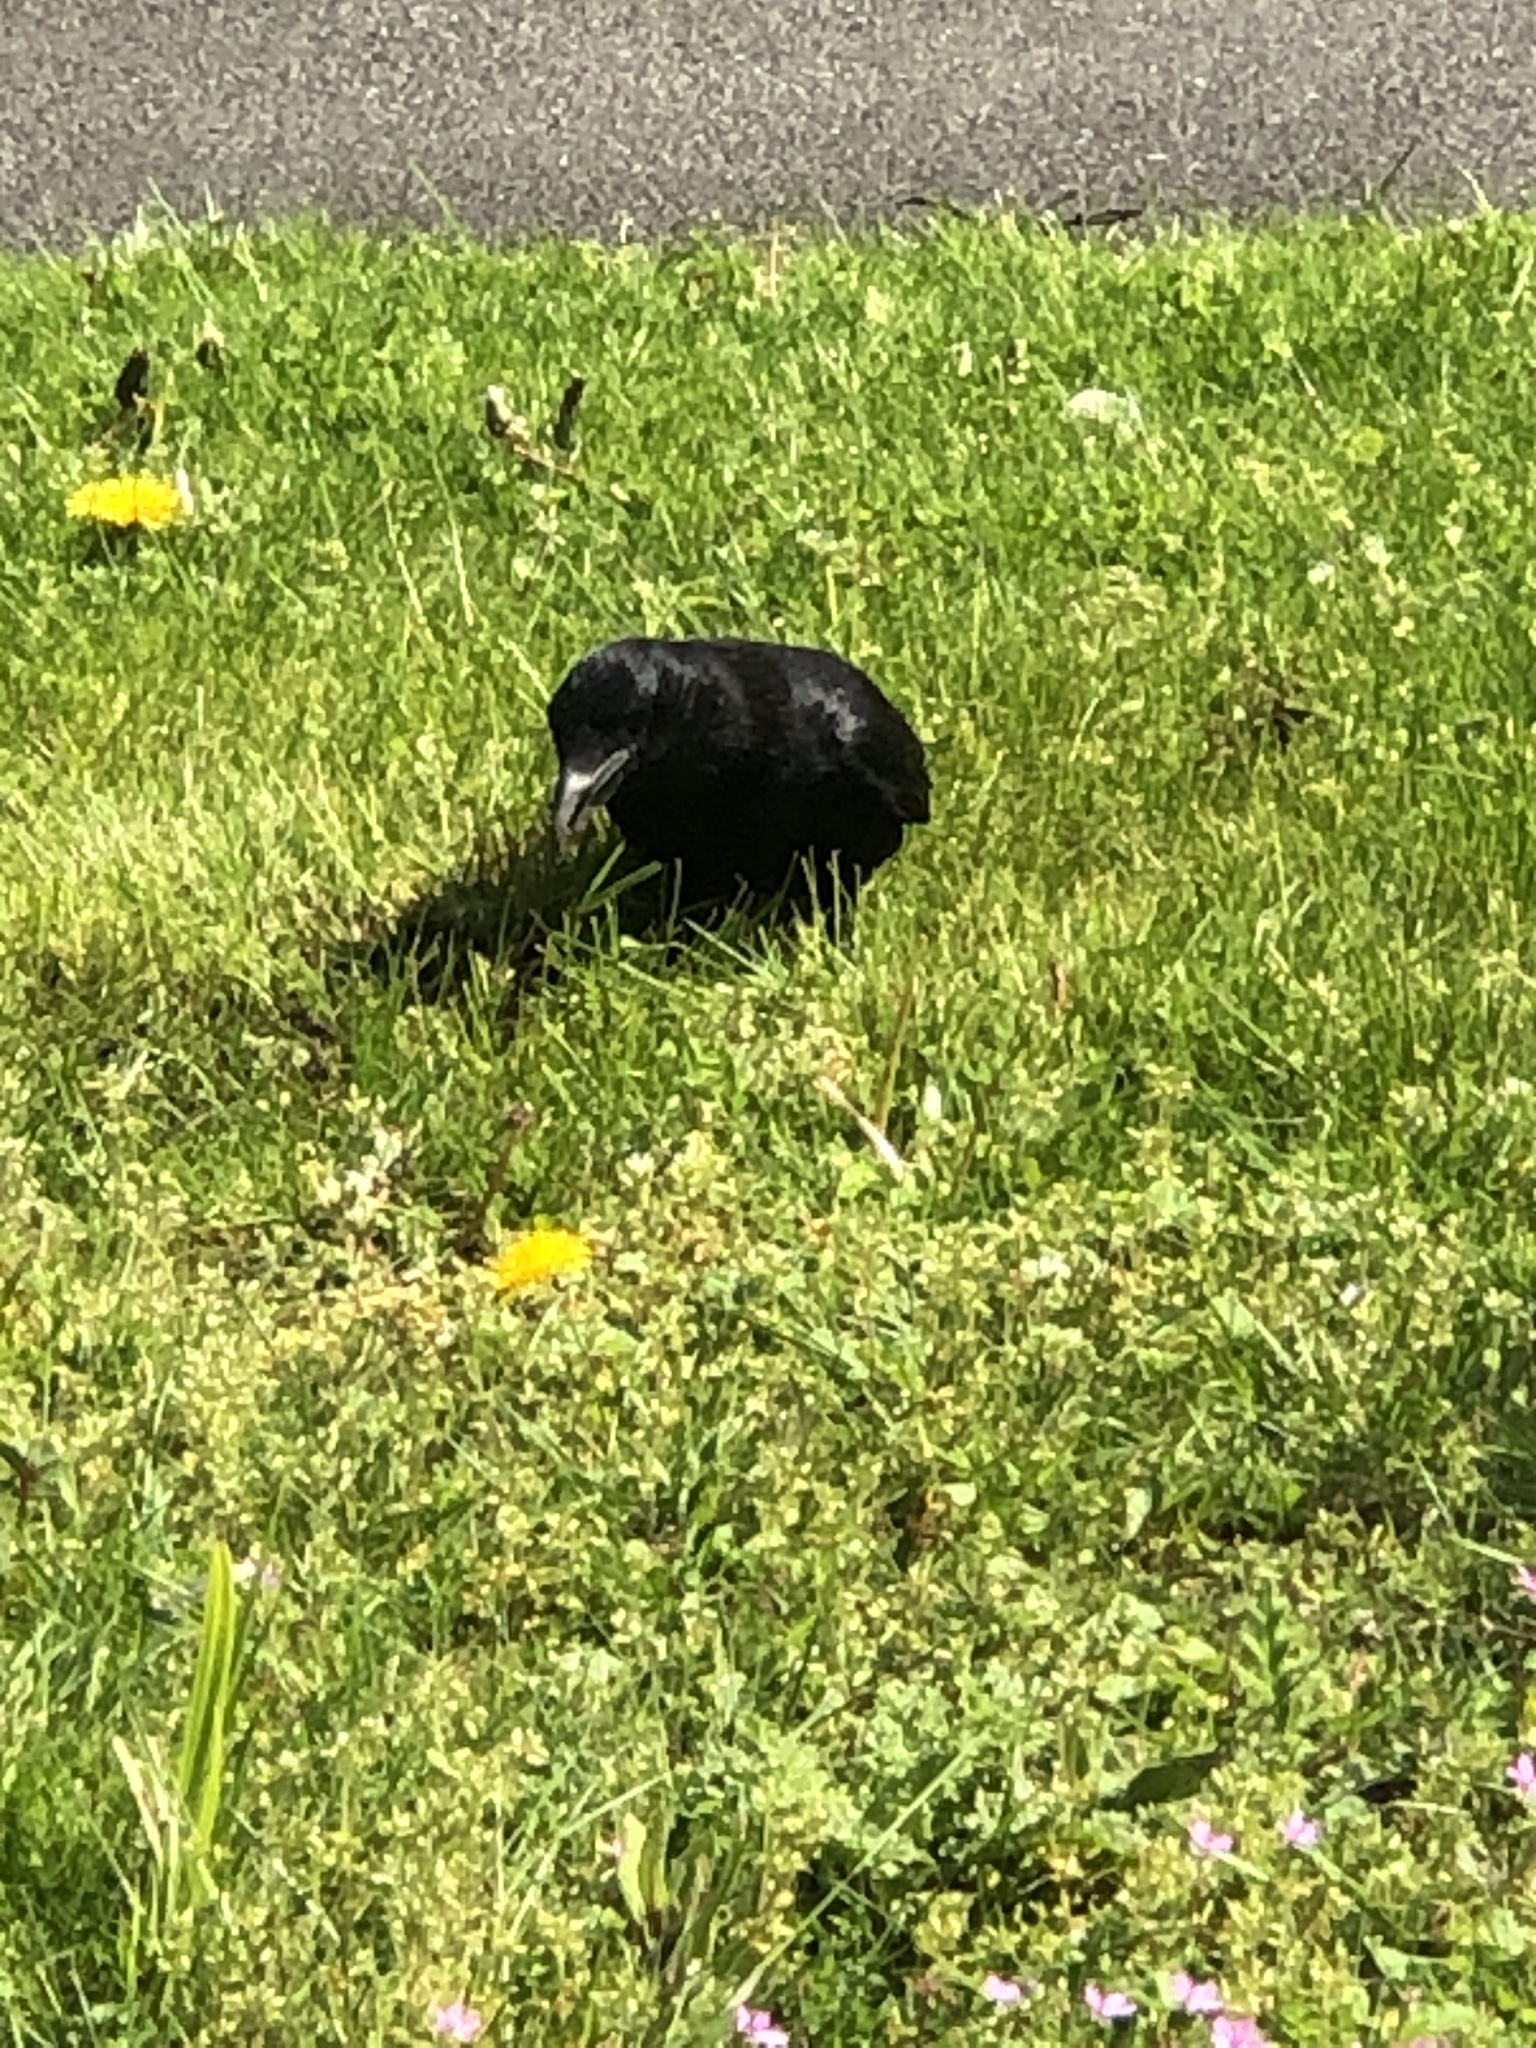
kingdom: Animalia
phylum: Chordata
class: Aves
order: Passeriformes
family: Corvidae
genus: Corvus
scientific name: Corvus corone
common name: Carrion crow
